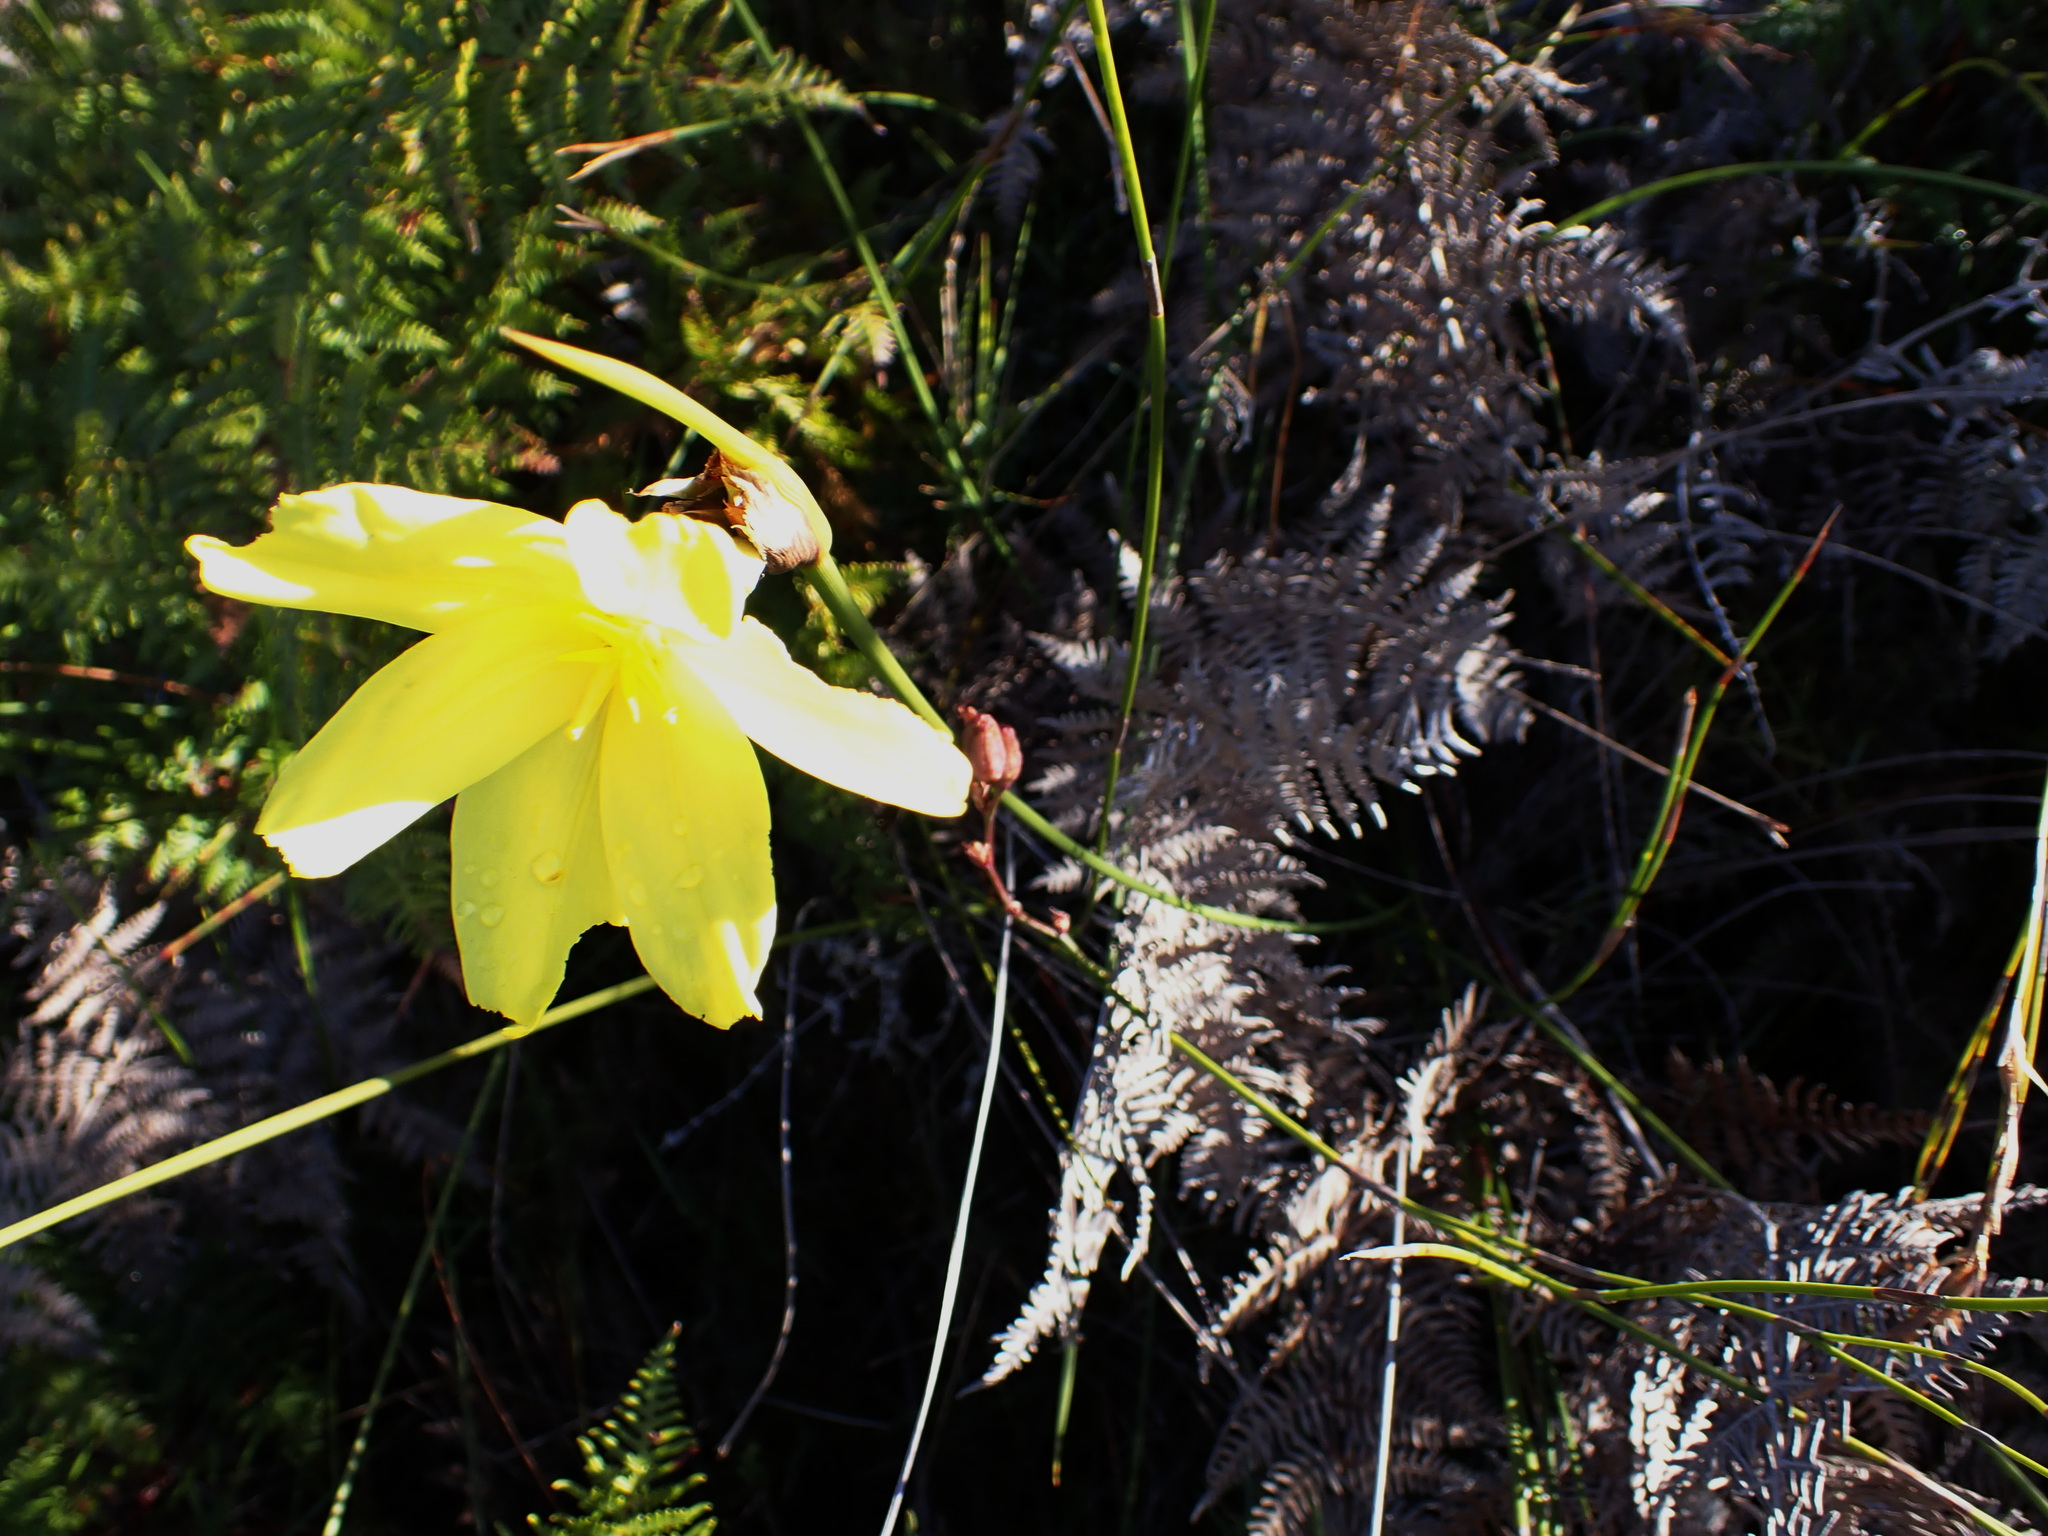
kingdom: Plantae
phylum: Tracheophyta
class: Liliopsida
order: Asparagales
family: Iridaceae
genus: Bobartia
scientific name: Bobartia aphylla
